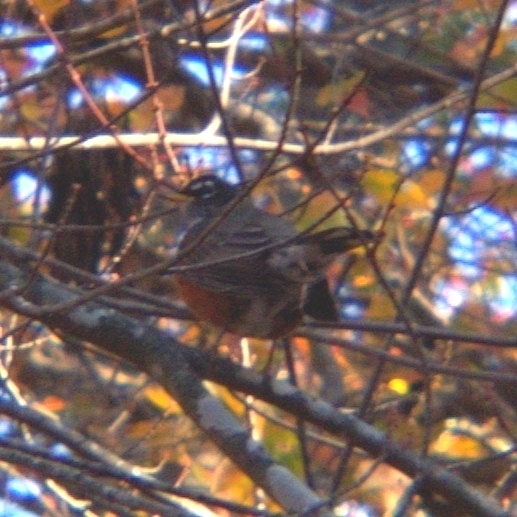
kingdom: Animalia
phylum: Chordata
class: Aves
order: Passeriformes
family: Turdidae
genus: Turdus
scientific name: Turdus migratorius
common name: American robin
